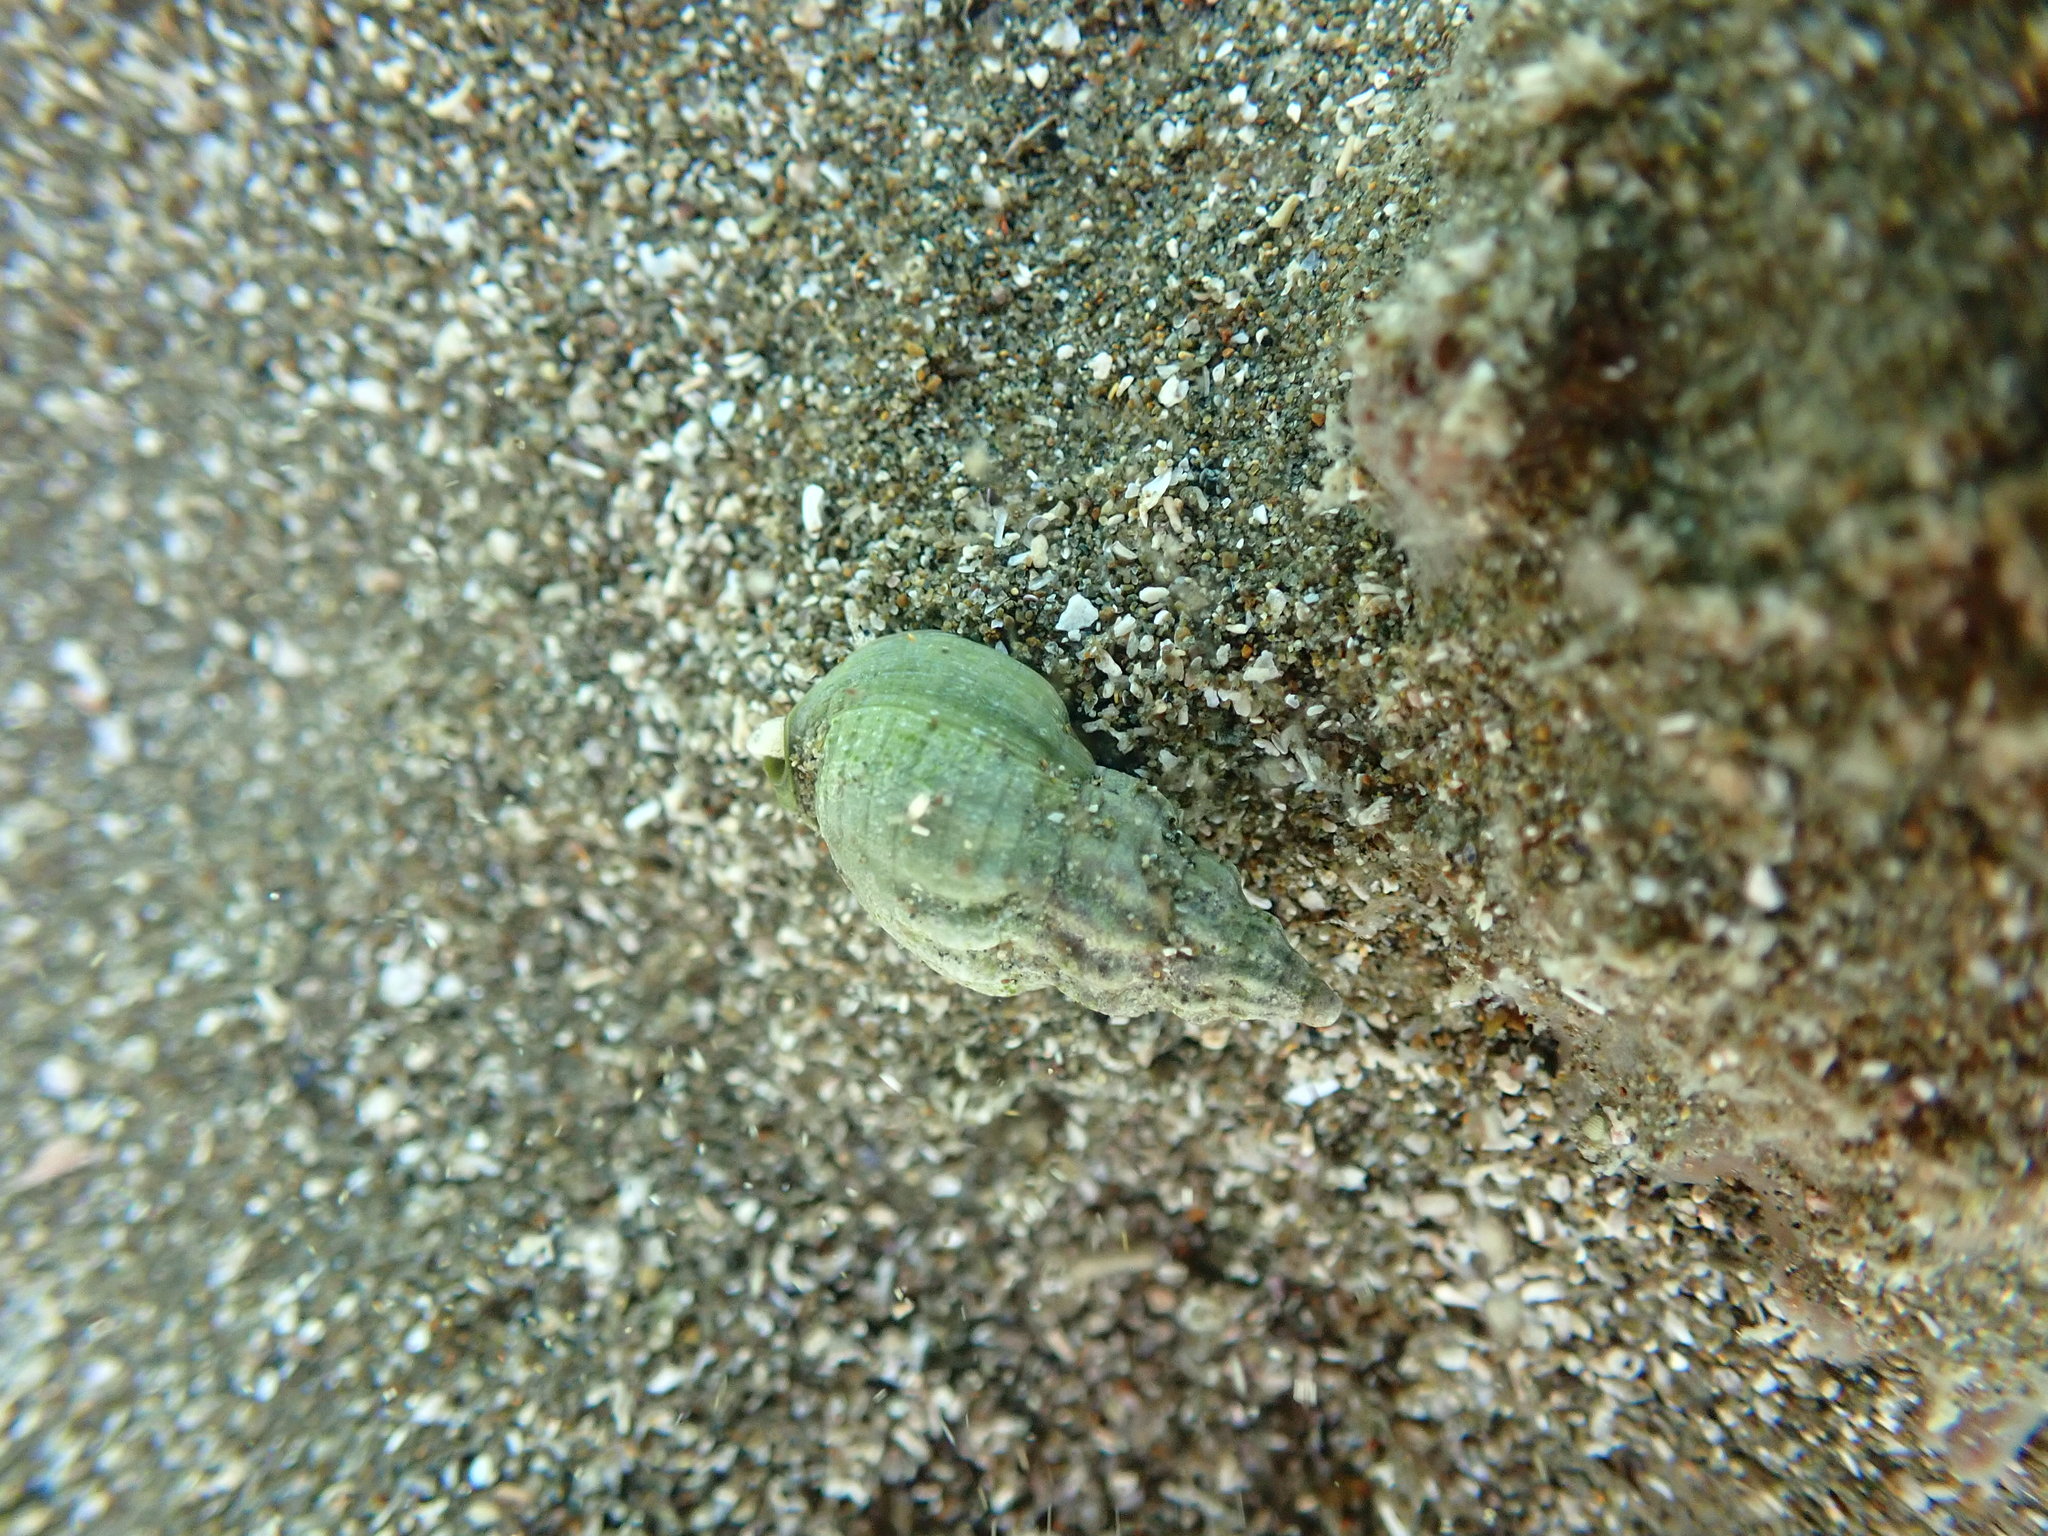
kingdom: Animalia
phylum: Mollusca
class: Gastropoda
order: Neogastropoda
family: Cominellidae
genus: Cominella
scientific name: Cominella quoyana
